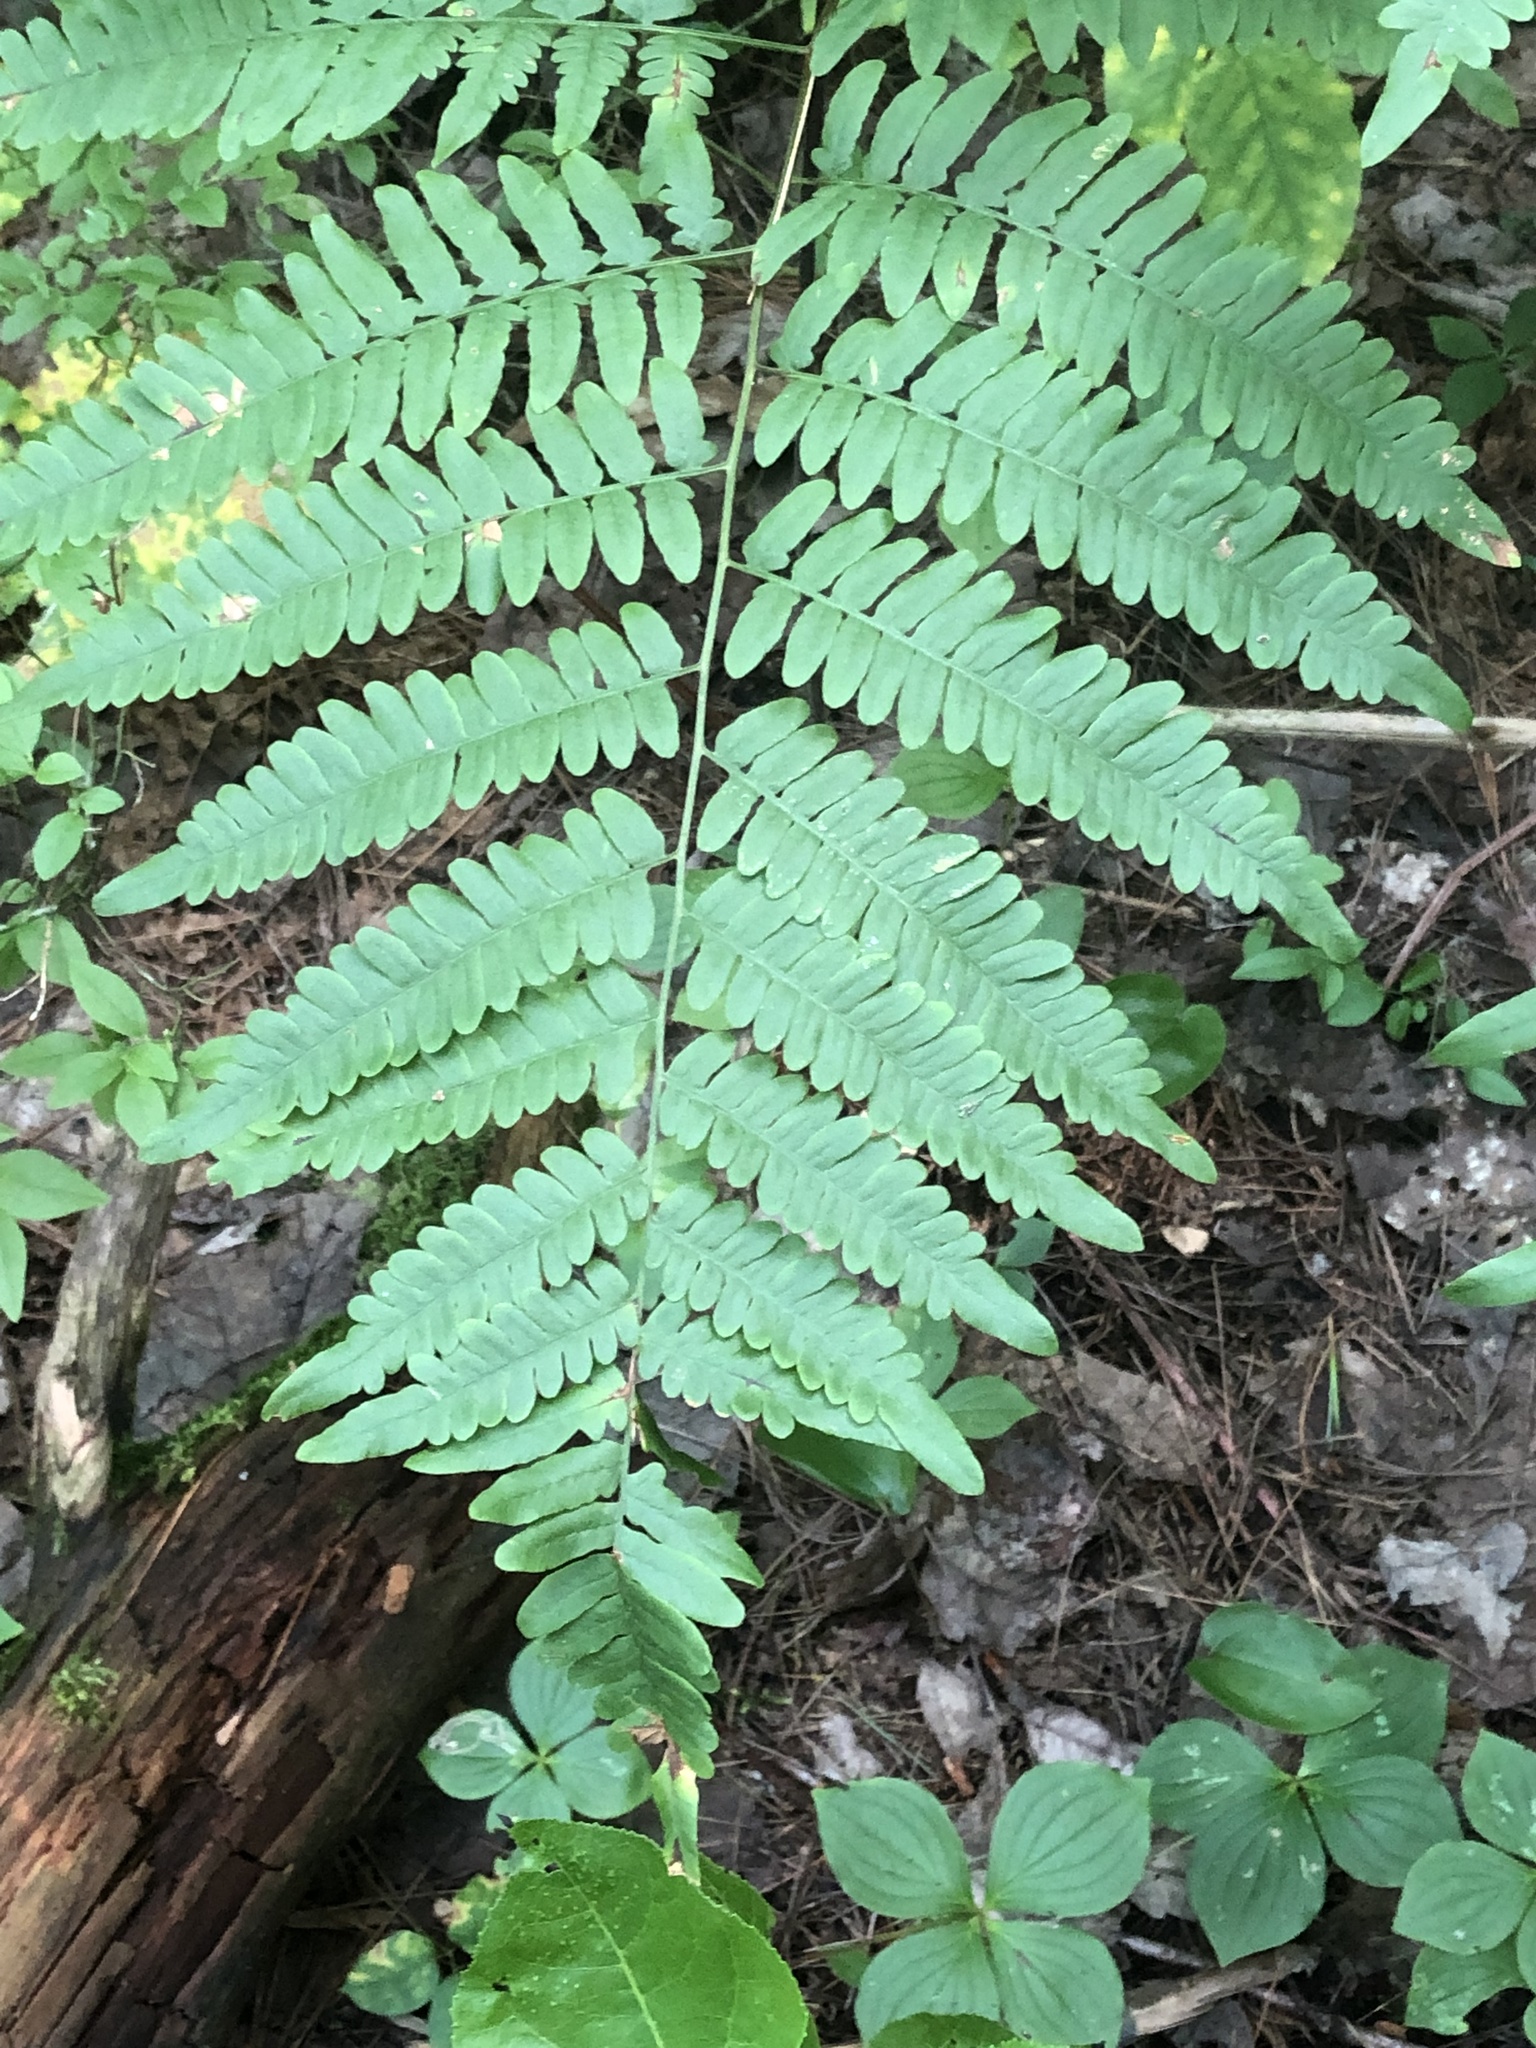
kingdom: Plantae
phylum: Tracheophyta
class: Polypodiopsida
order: Polypodiales
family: Dennstaedtiaceae
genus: Pteridium
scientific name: Pteridium aquilinum
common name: Bracken
